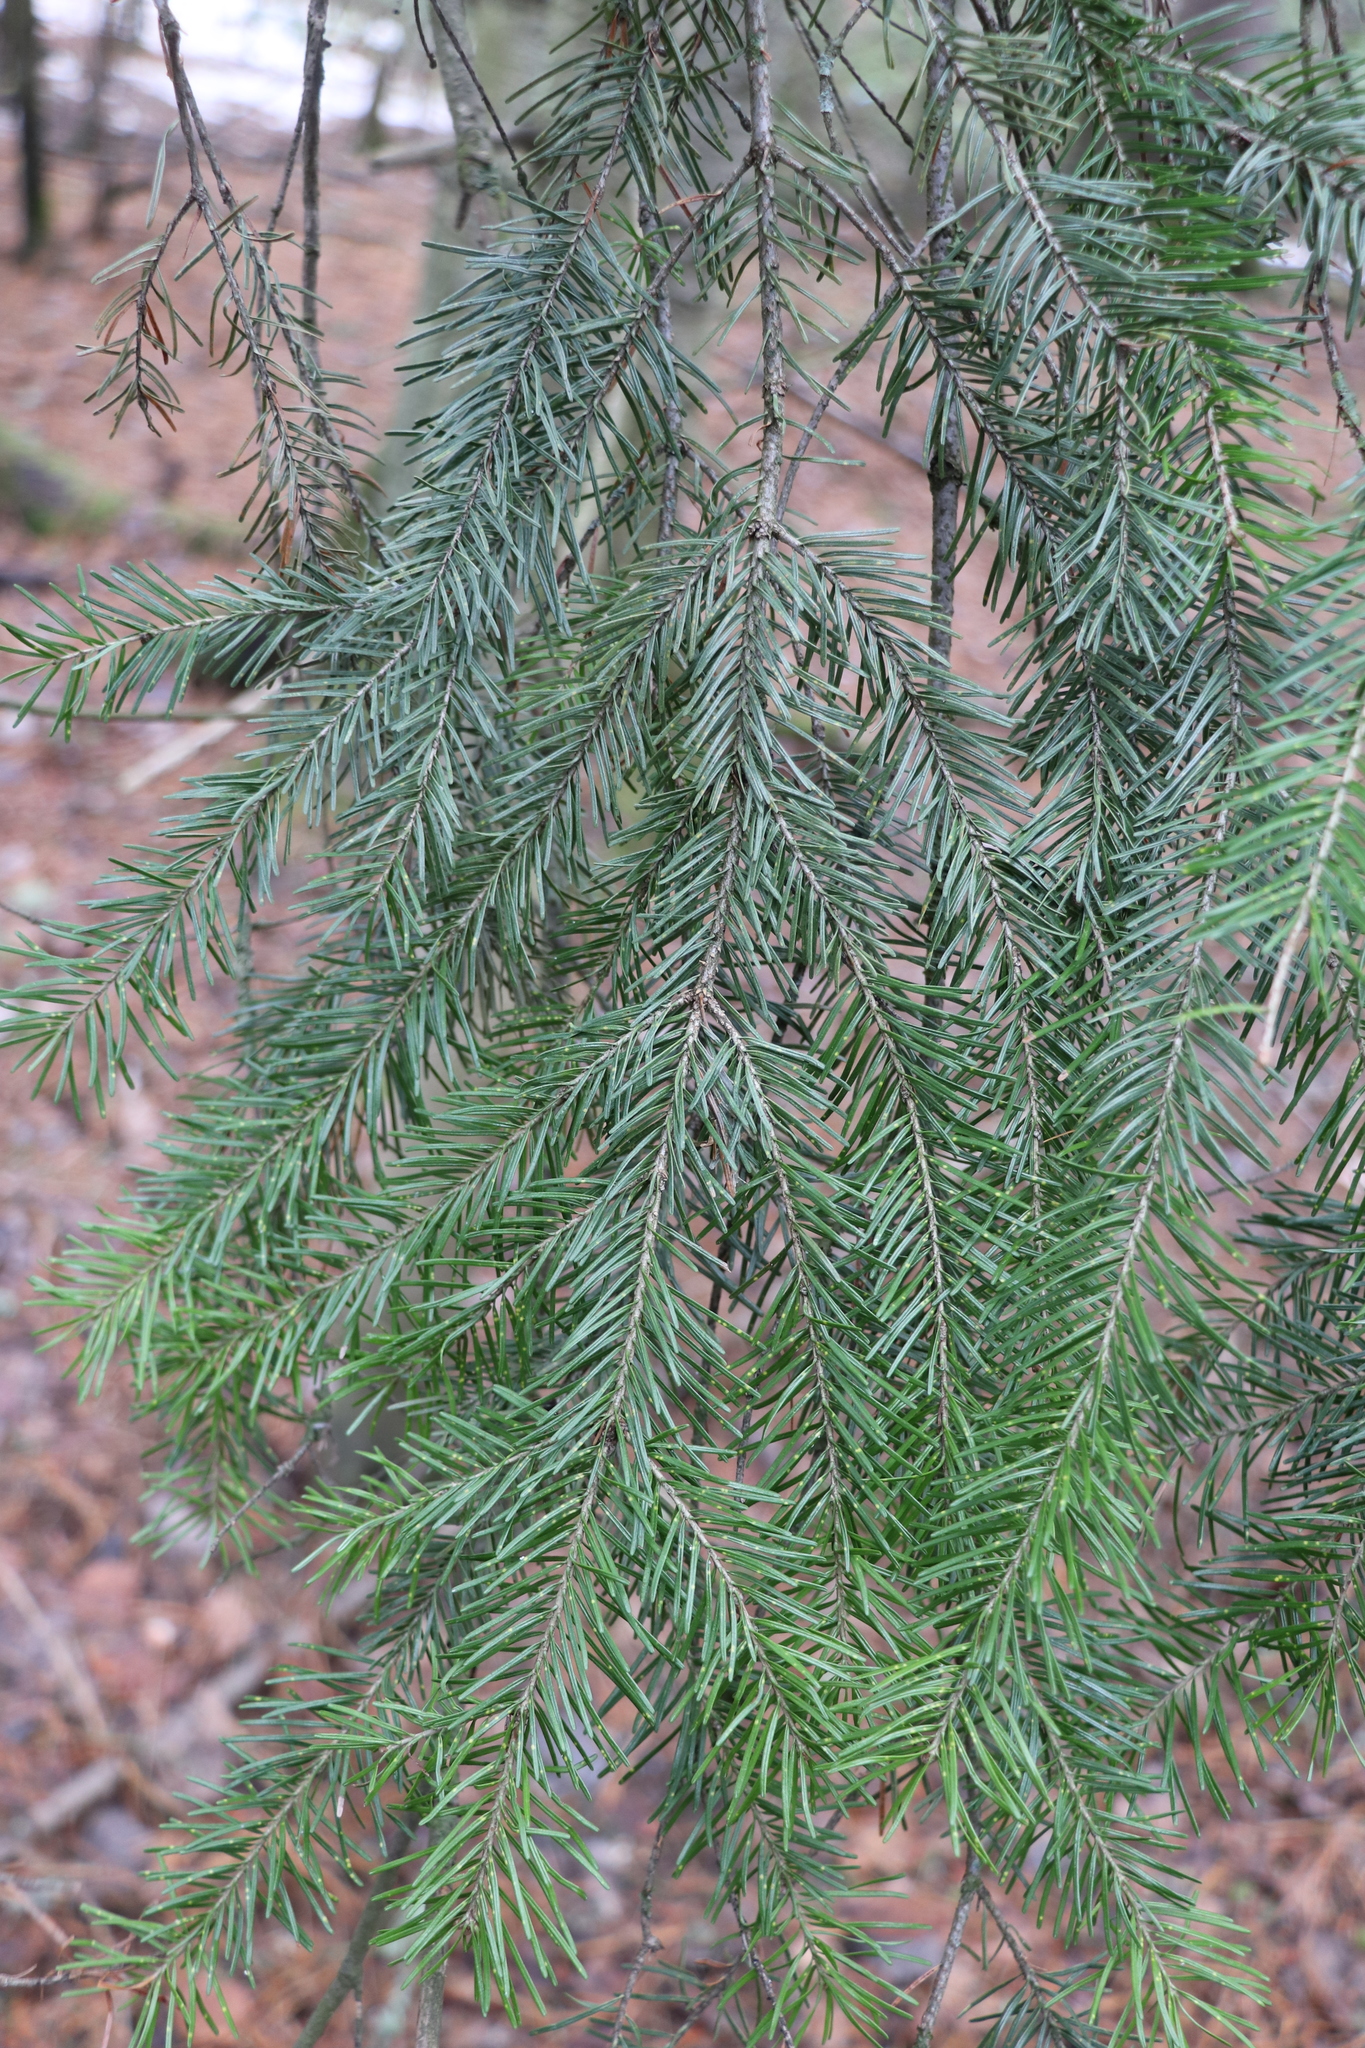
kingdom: Plantae
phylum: Tracheophyta
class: Pinopsida
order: Pinales
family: Pinaceae
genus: Abies
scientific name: Abies sibirica
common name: Siberian fir
